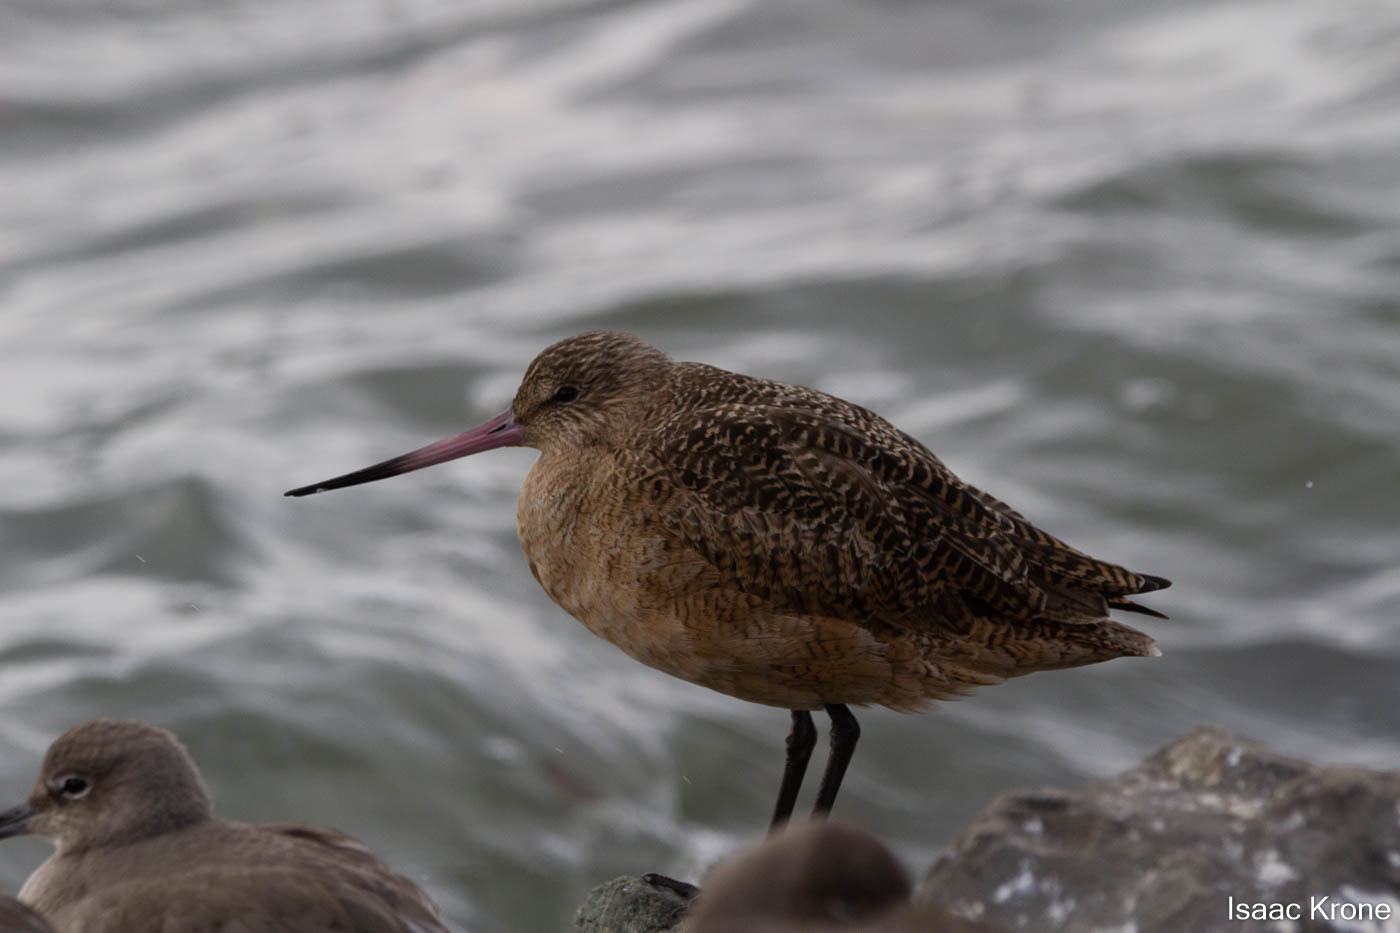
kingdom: Animalia
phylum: Chordata
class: Aves
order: Charadriiformes
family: Scolopacidae
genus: Limosa
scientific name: Limosa fedoa
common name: Marbled godwit
